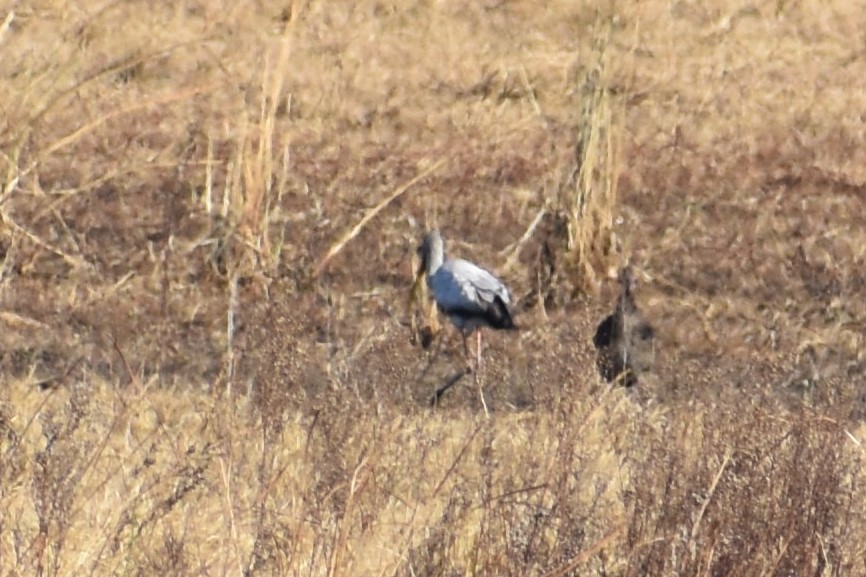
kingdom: Animalia
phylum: Chordata
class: Aves
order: Ciconiiformes
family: Ciconiidae
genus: Mycteria
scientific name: Mycteria ibis
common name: Yellow-billed stork
